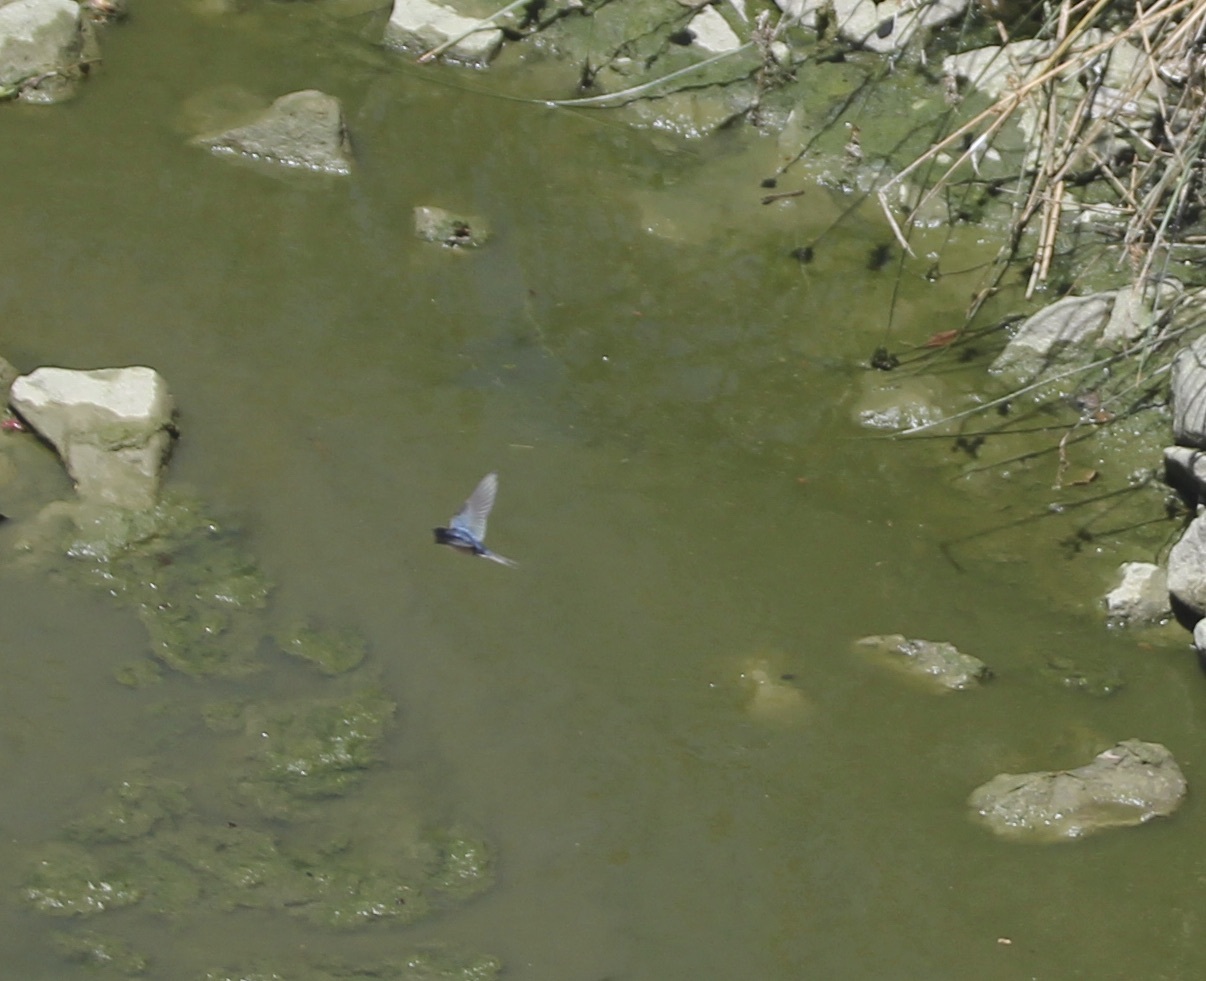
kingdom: Animalia
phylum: Chordata
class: Aves
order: Passeriformes
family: Hirundinidae
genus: Hirundo
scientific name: Hirundo rustica
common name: Barn swallow
